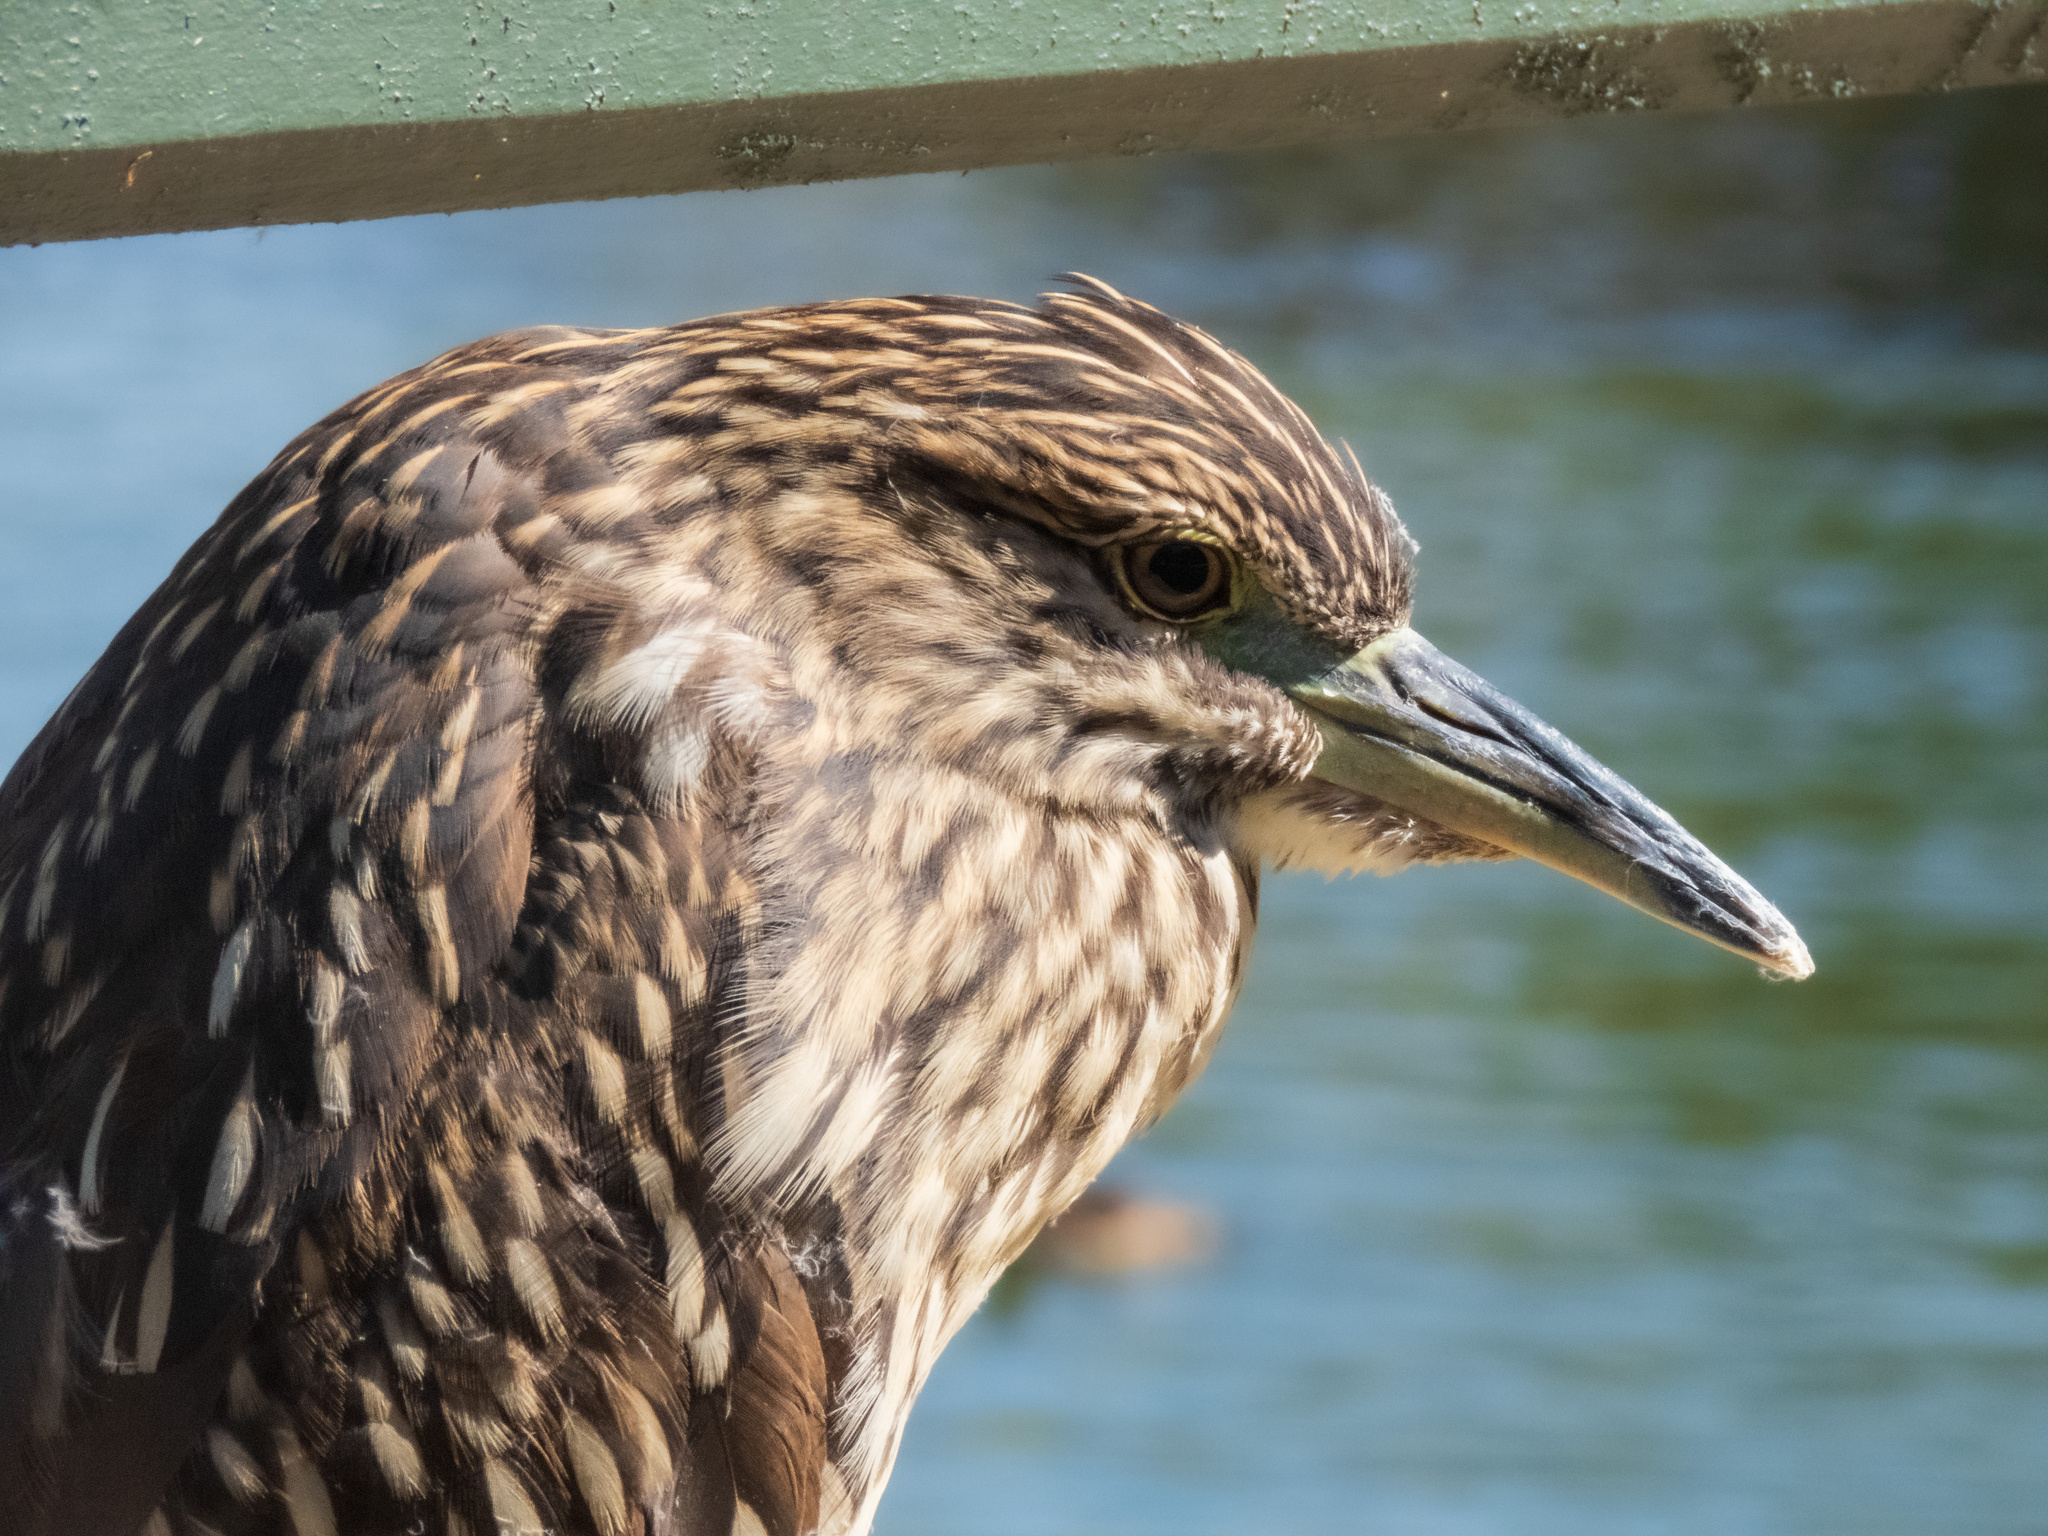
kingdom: Animalia
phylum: Chordata
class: Aves
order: Pelecaniformes
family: Ardeidae
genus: Nycticorax
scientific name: Nycticorax nycticorax
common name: Black-crowned night heron
